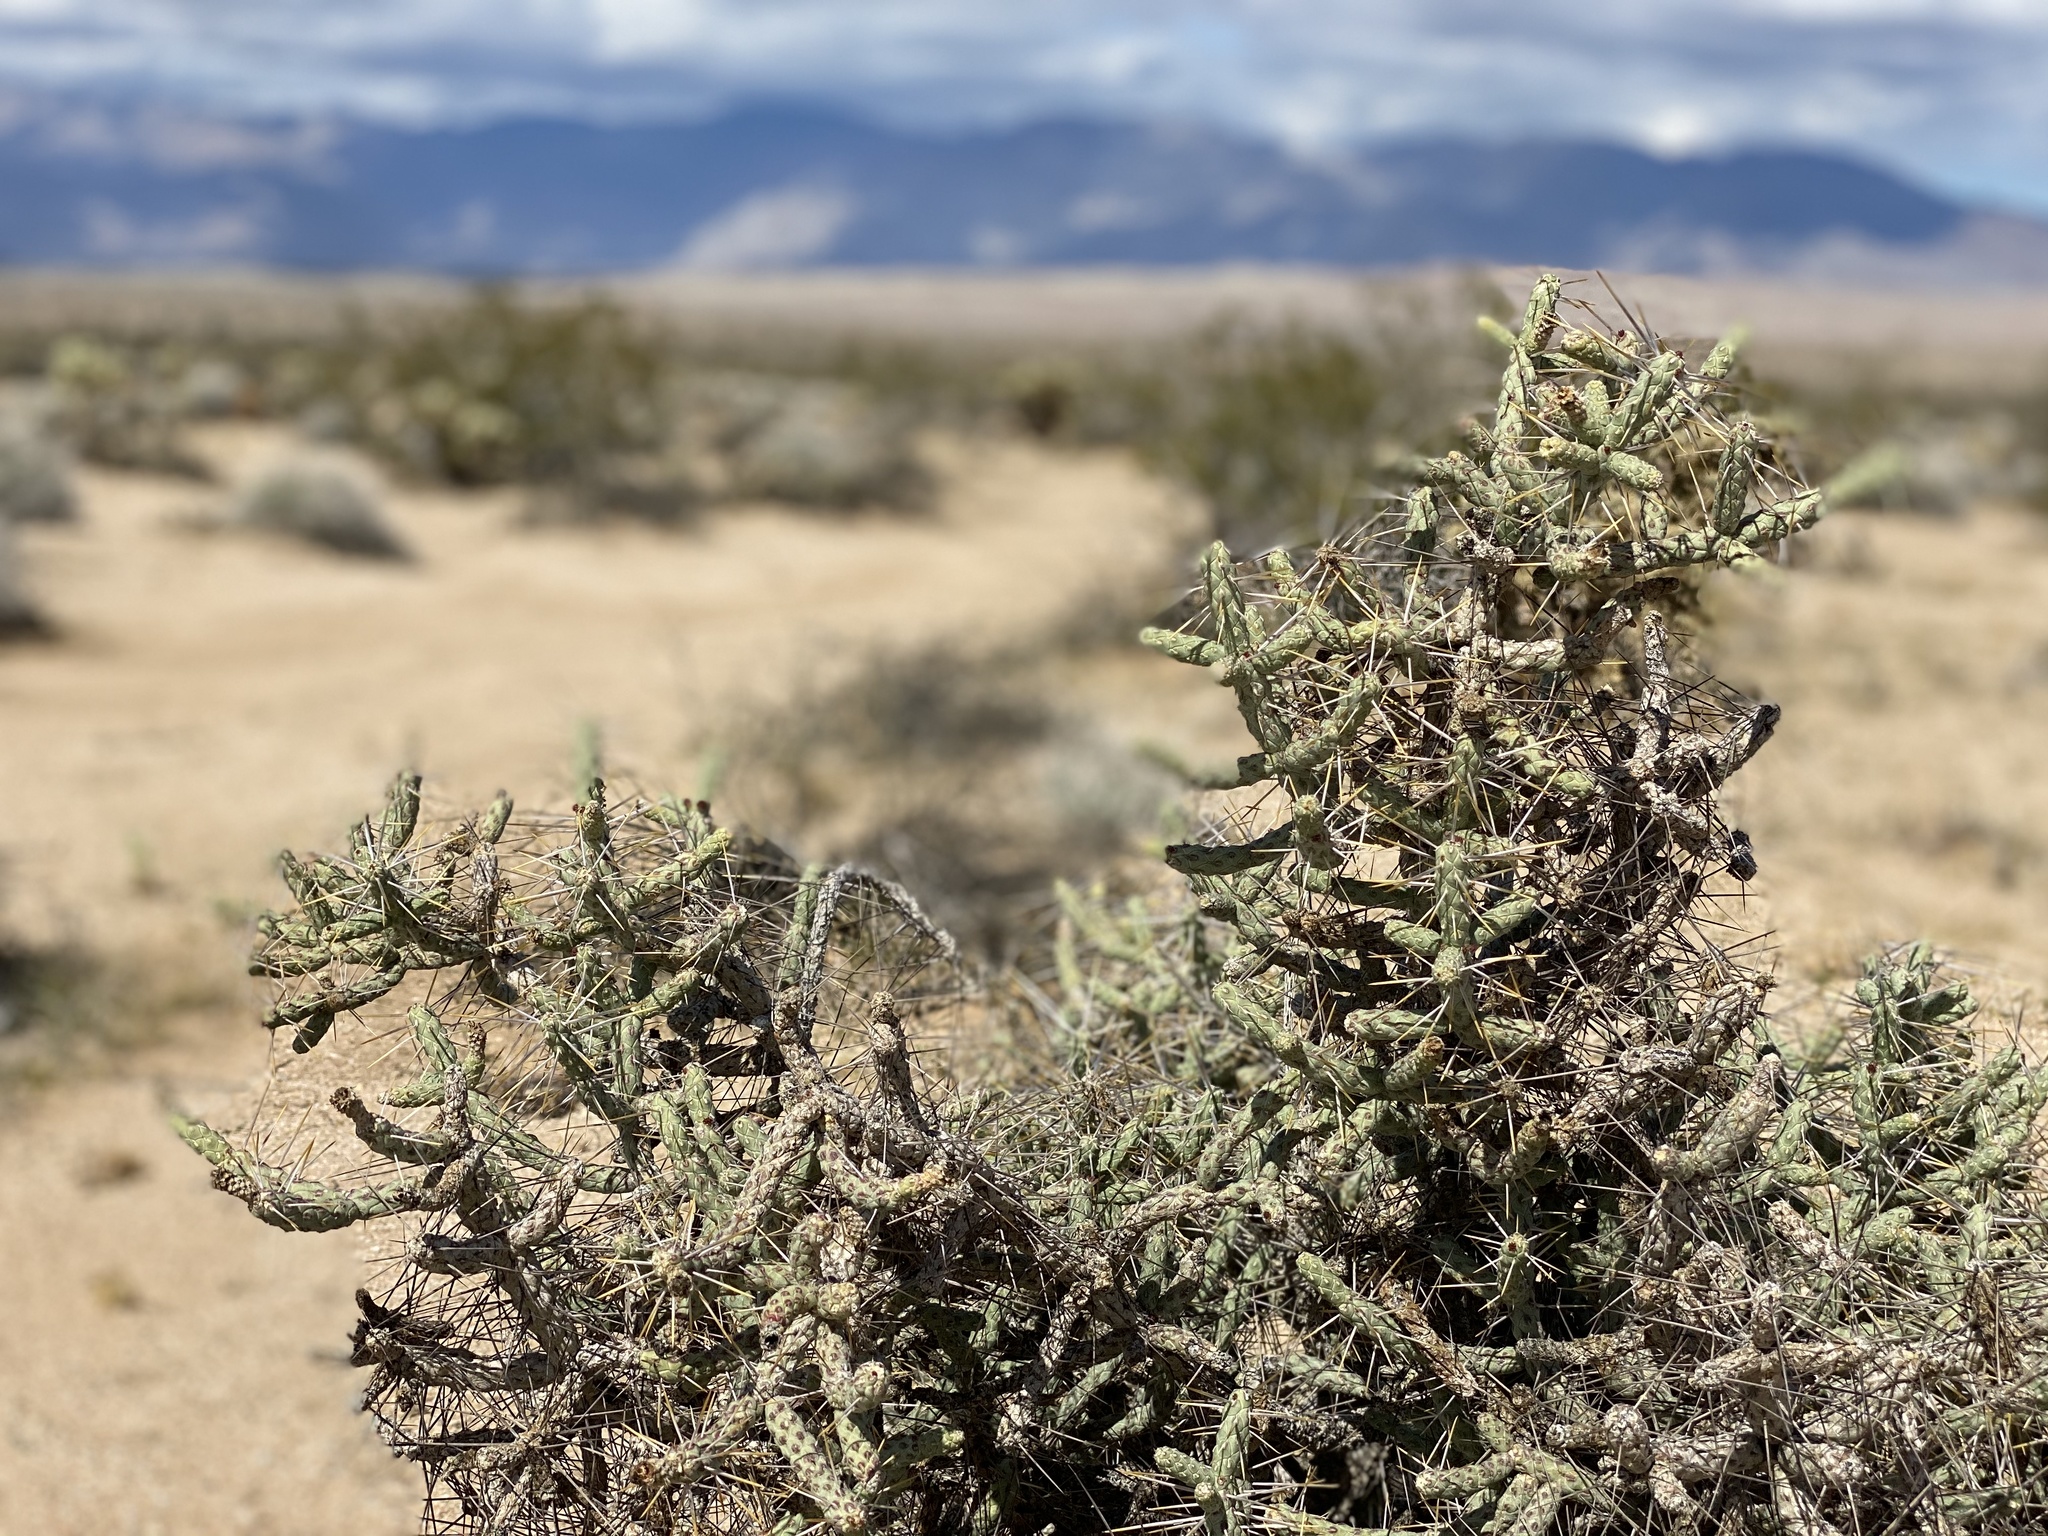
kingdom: Plantae
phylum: Tracheophyta
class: Magnoliopsida
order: Caryophyllales
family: Cactaceae
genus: Cylindropuntia
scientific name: Cylindropuntia ramosissima
